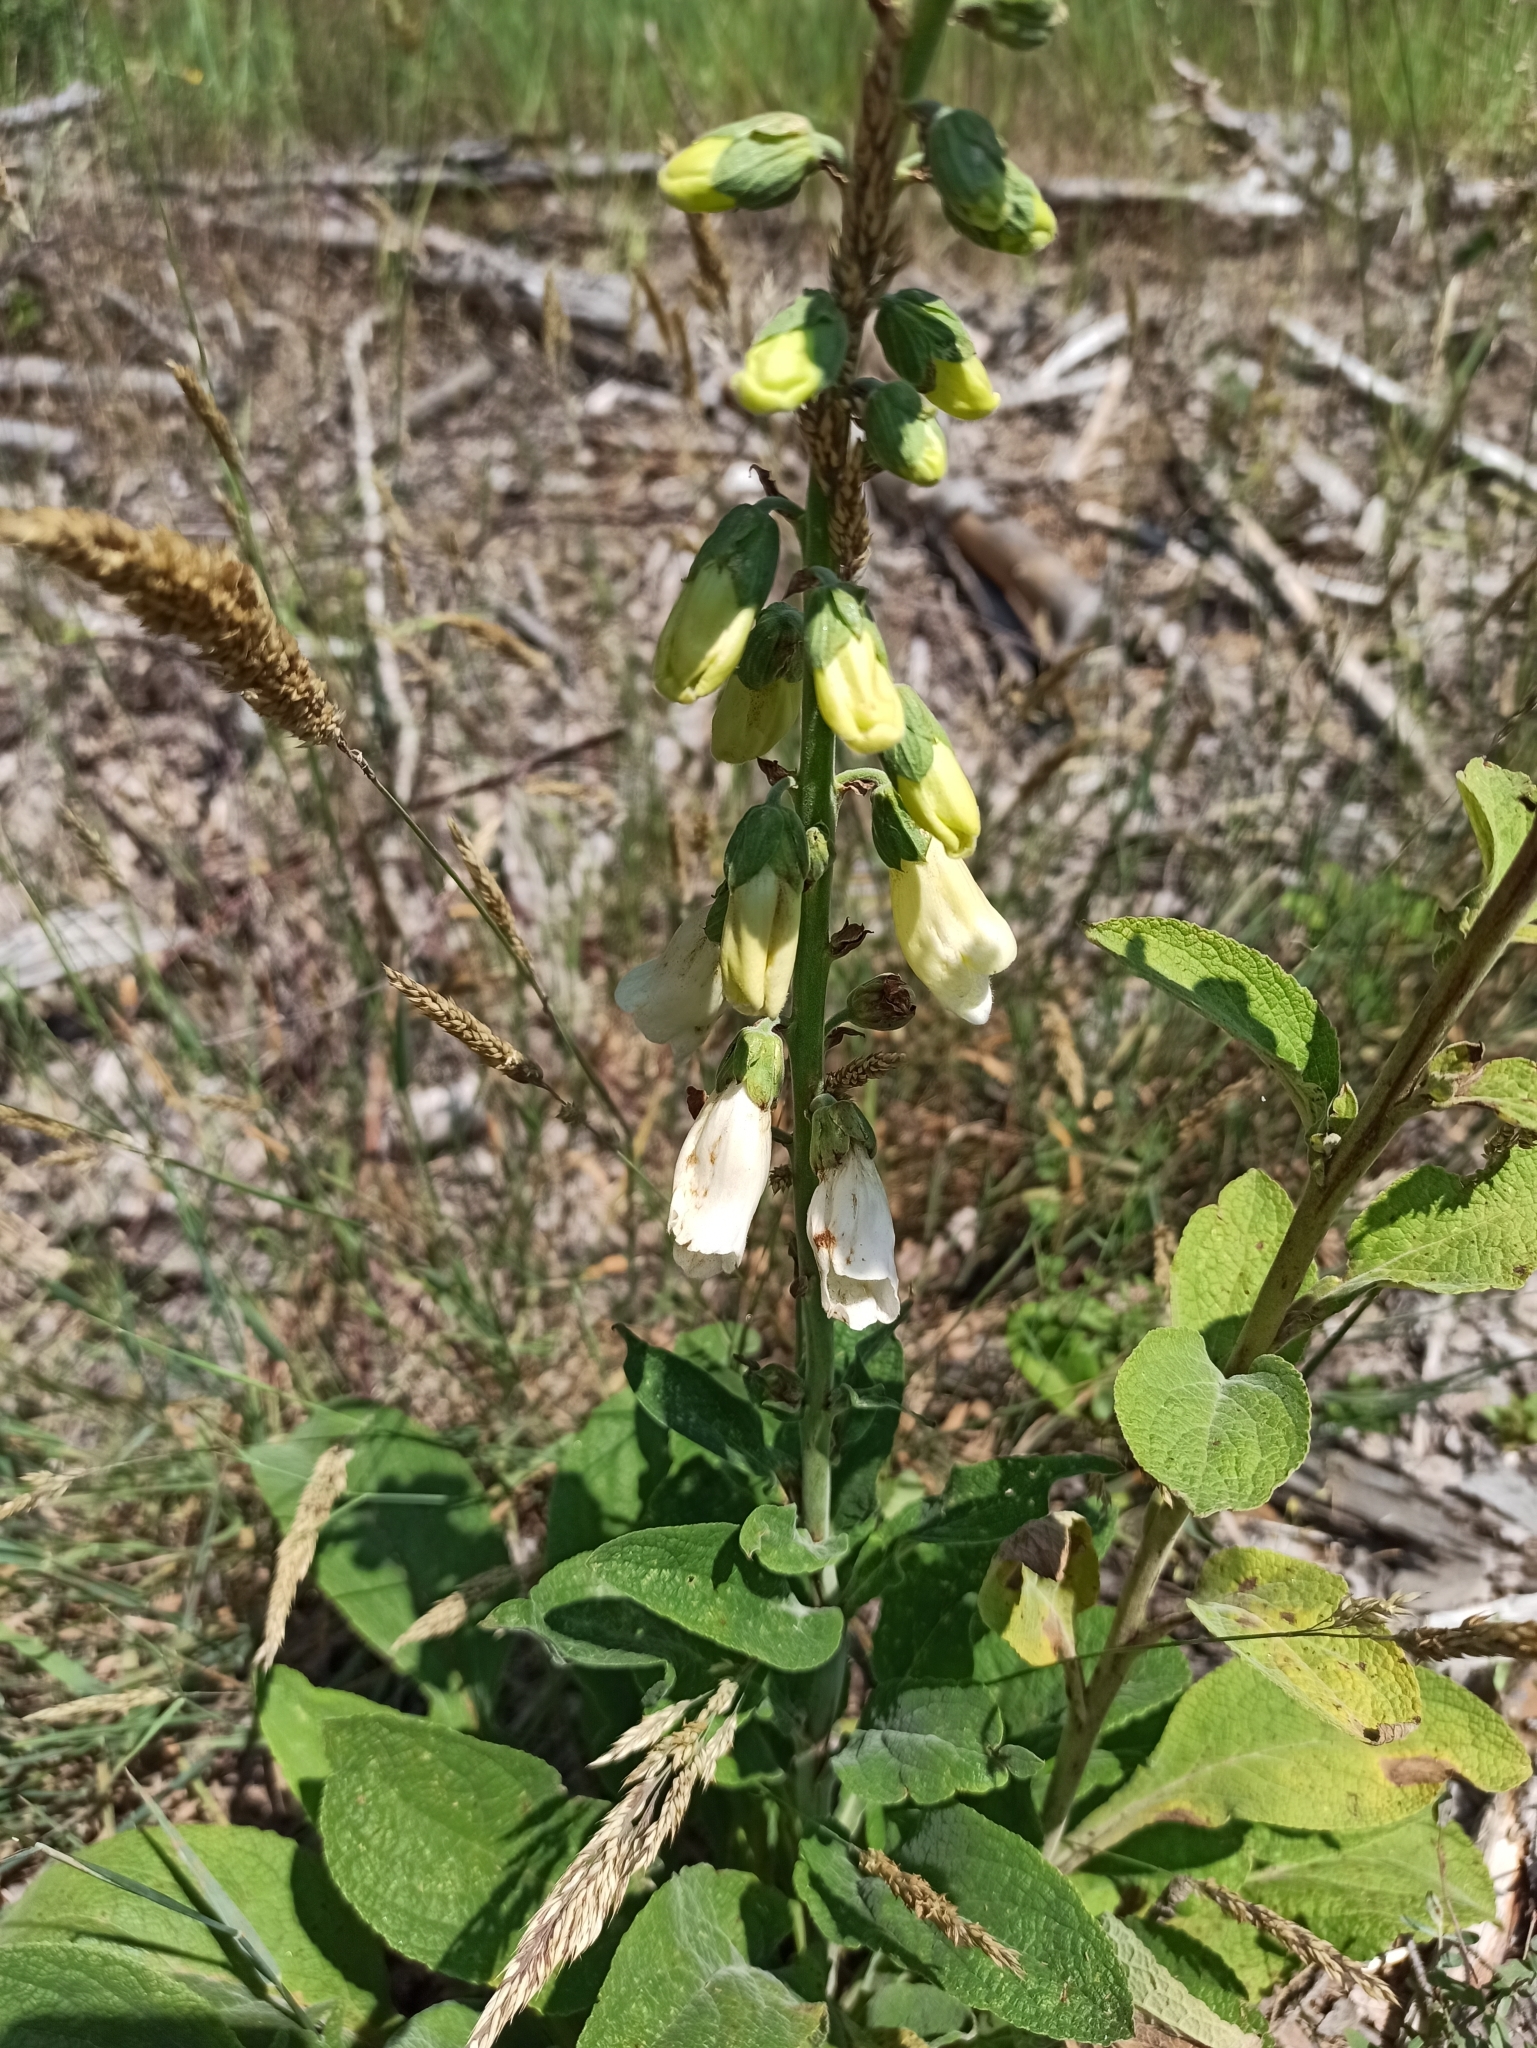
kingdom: Plantae
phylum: Tracheophyta
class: Magnoliopsida
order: Lamiales
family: Plantaginaceae
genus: Digitalis
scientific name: Digitalis purpurea
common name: Foxglove
